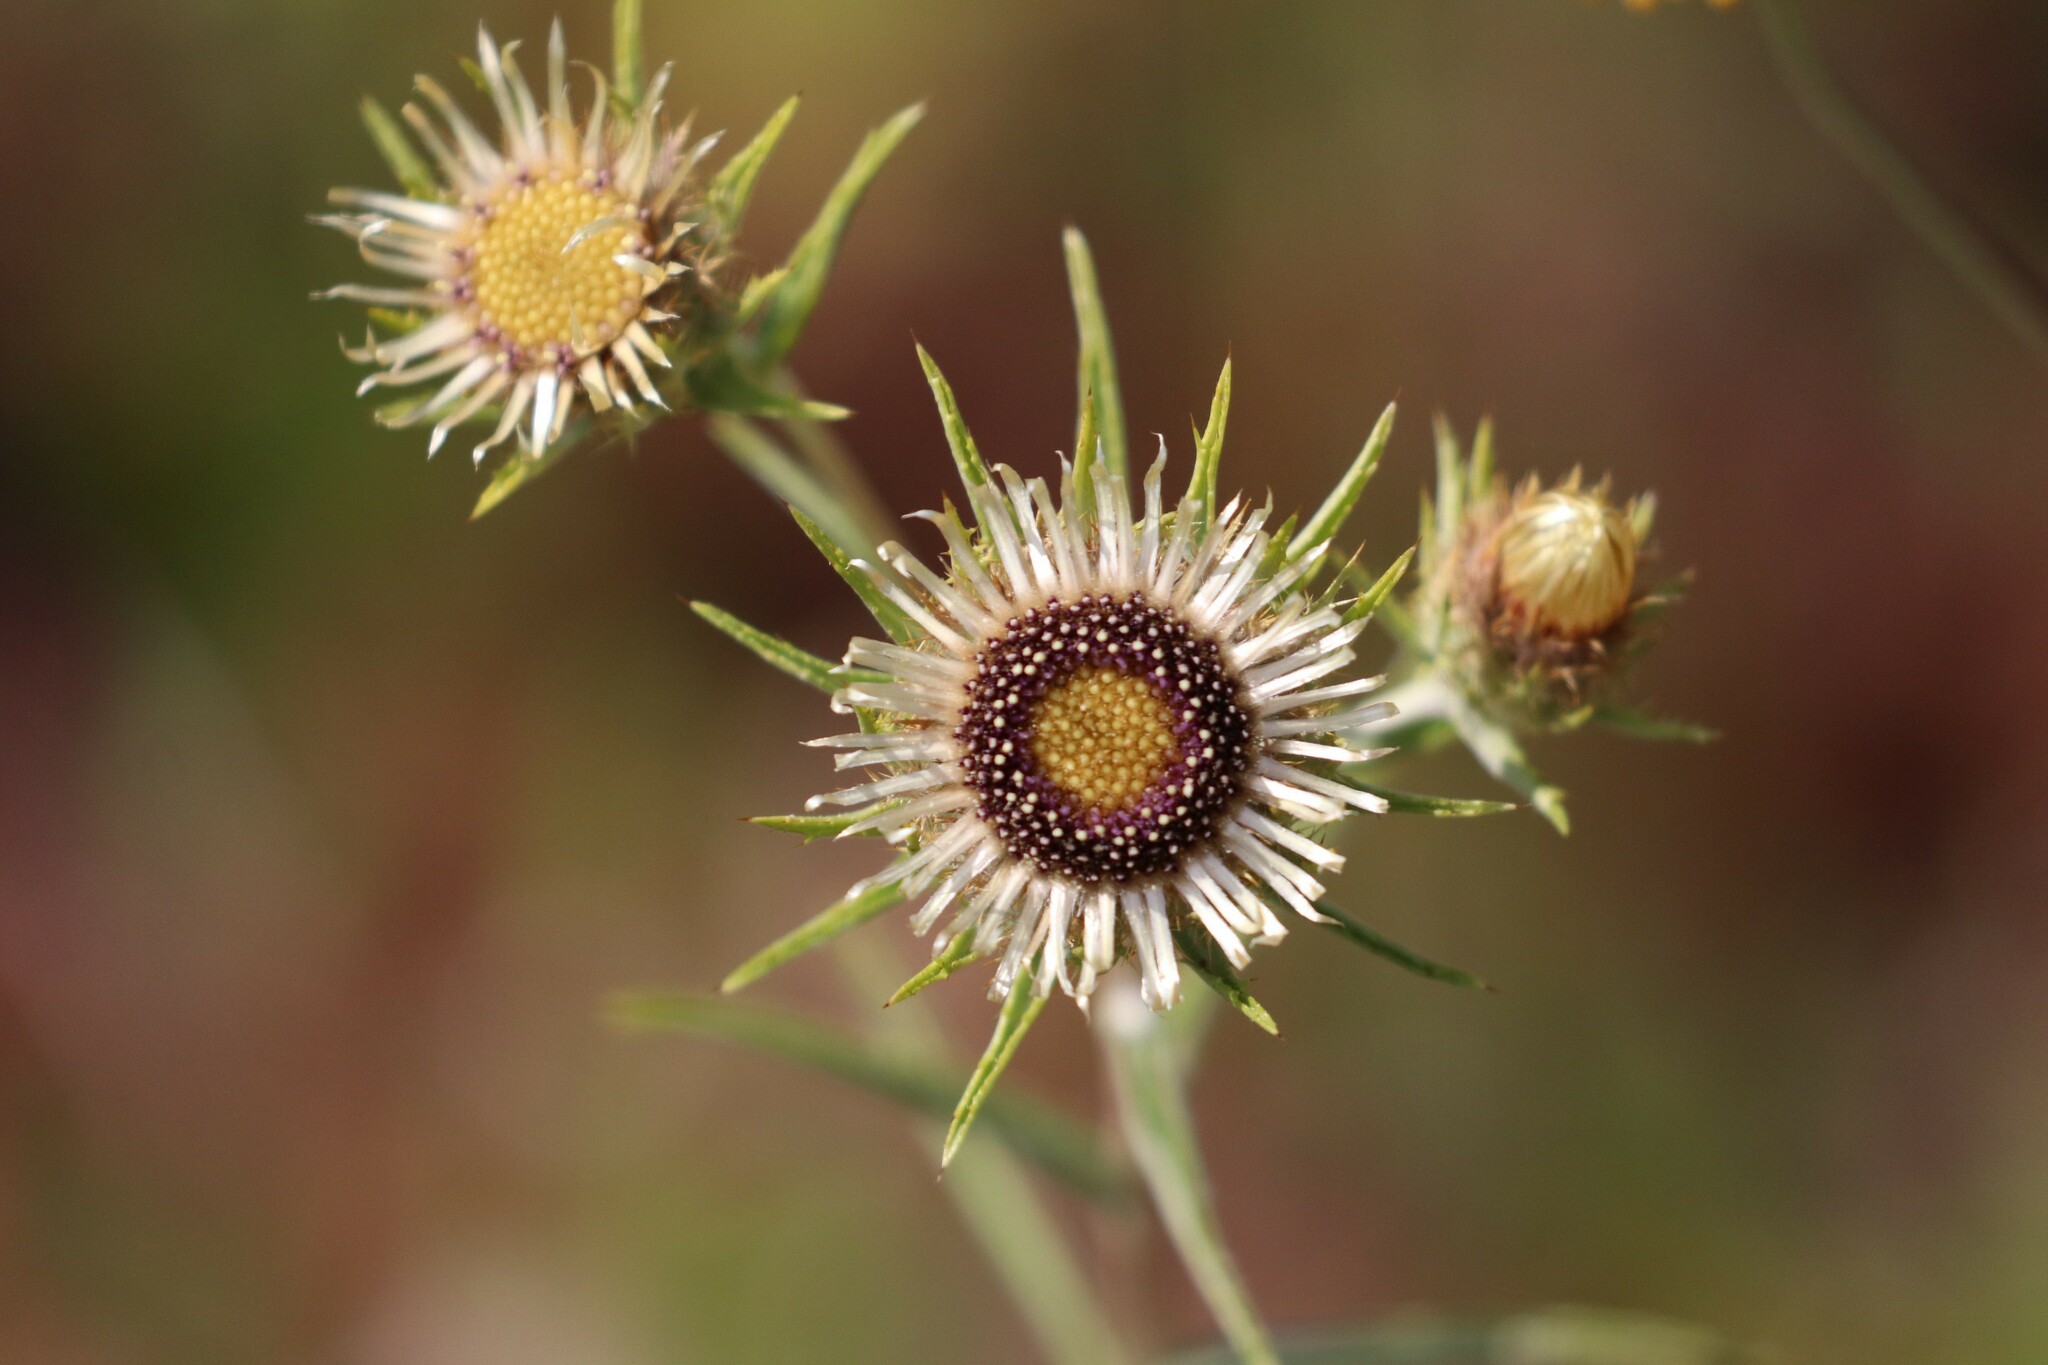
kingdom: Plantae
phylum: Tracheophyta
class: Magnoliopsida
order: Asterales
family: Asteraceae
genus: Carlina
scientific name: Carlina biebersteinii
